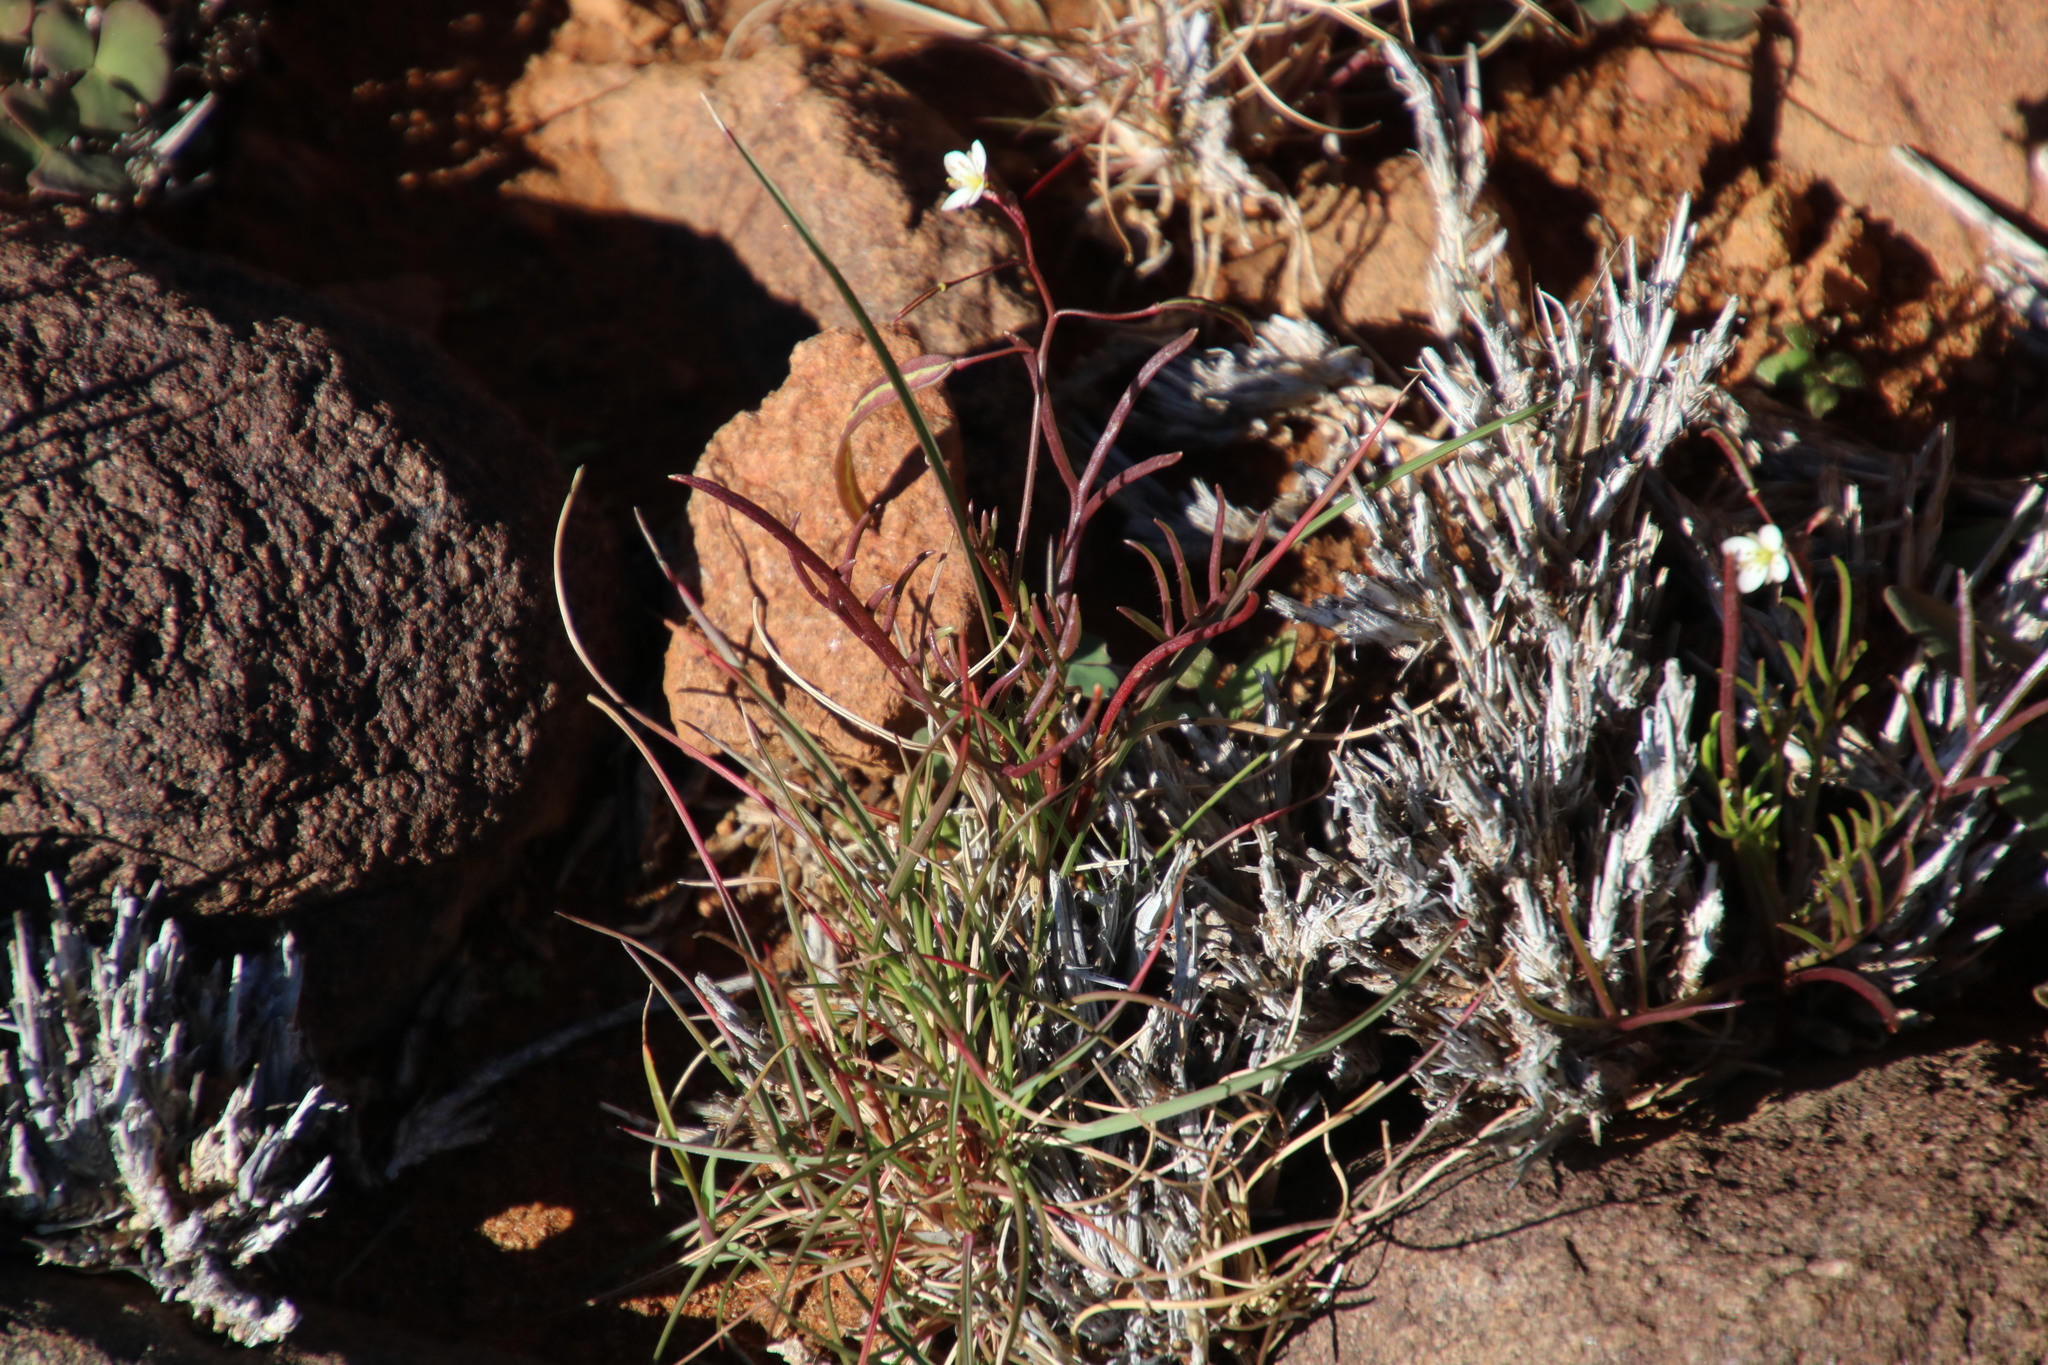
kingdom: Plantae
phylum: Tracheophyta
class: Magnoliopsida
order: Brassicales
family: Brassicaceae
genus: Heliophila
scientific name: Heliophila crithmifolia
